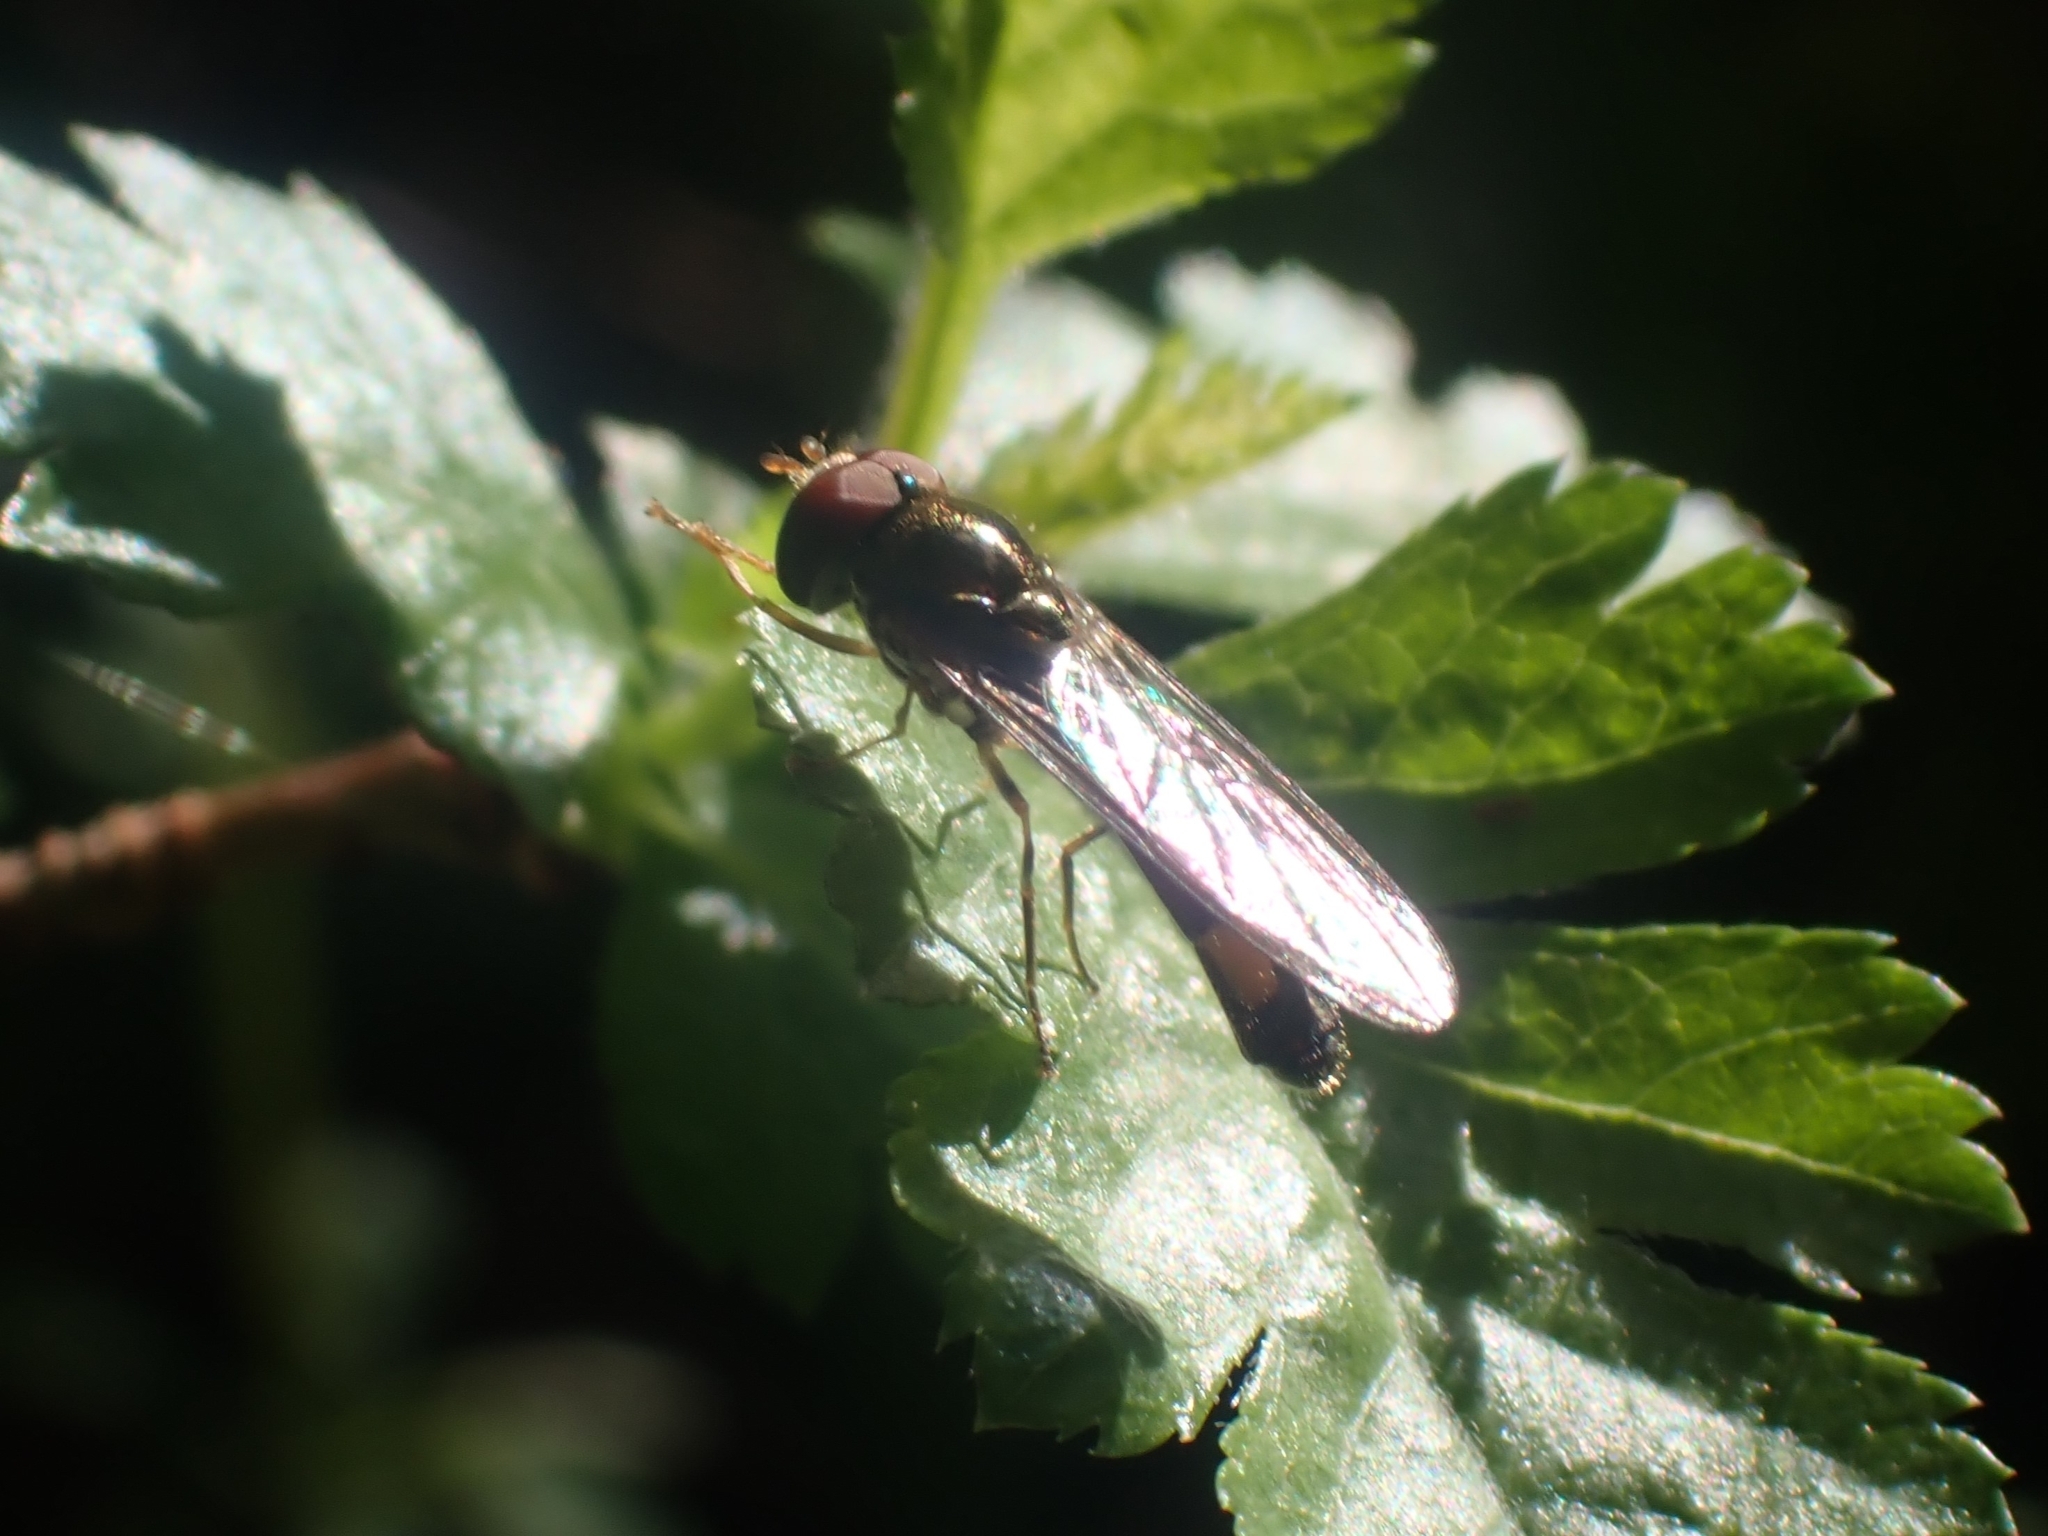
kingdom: Animalia
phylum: Arthropoda
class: Insecta
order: Diptera
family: Syrphidae
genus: Melanostoma
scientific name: Melanostoma scalare
